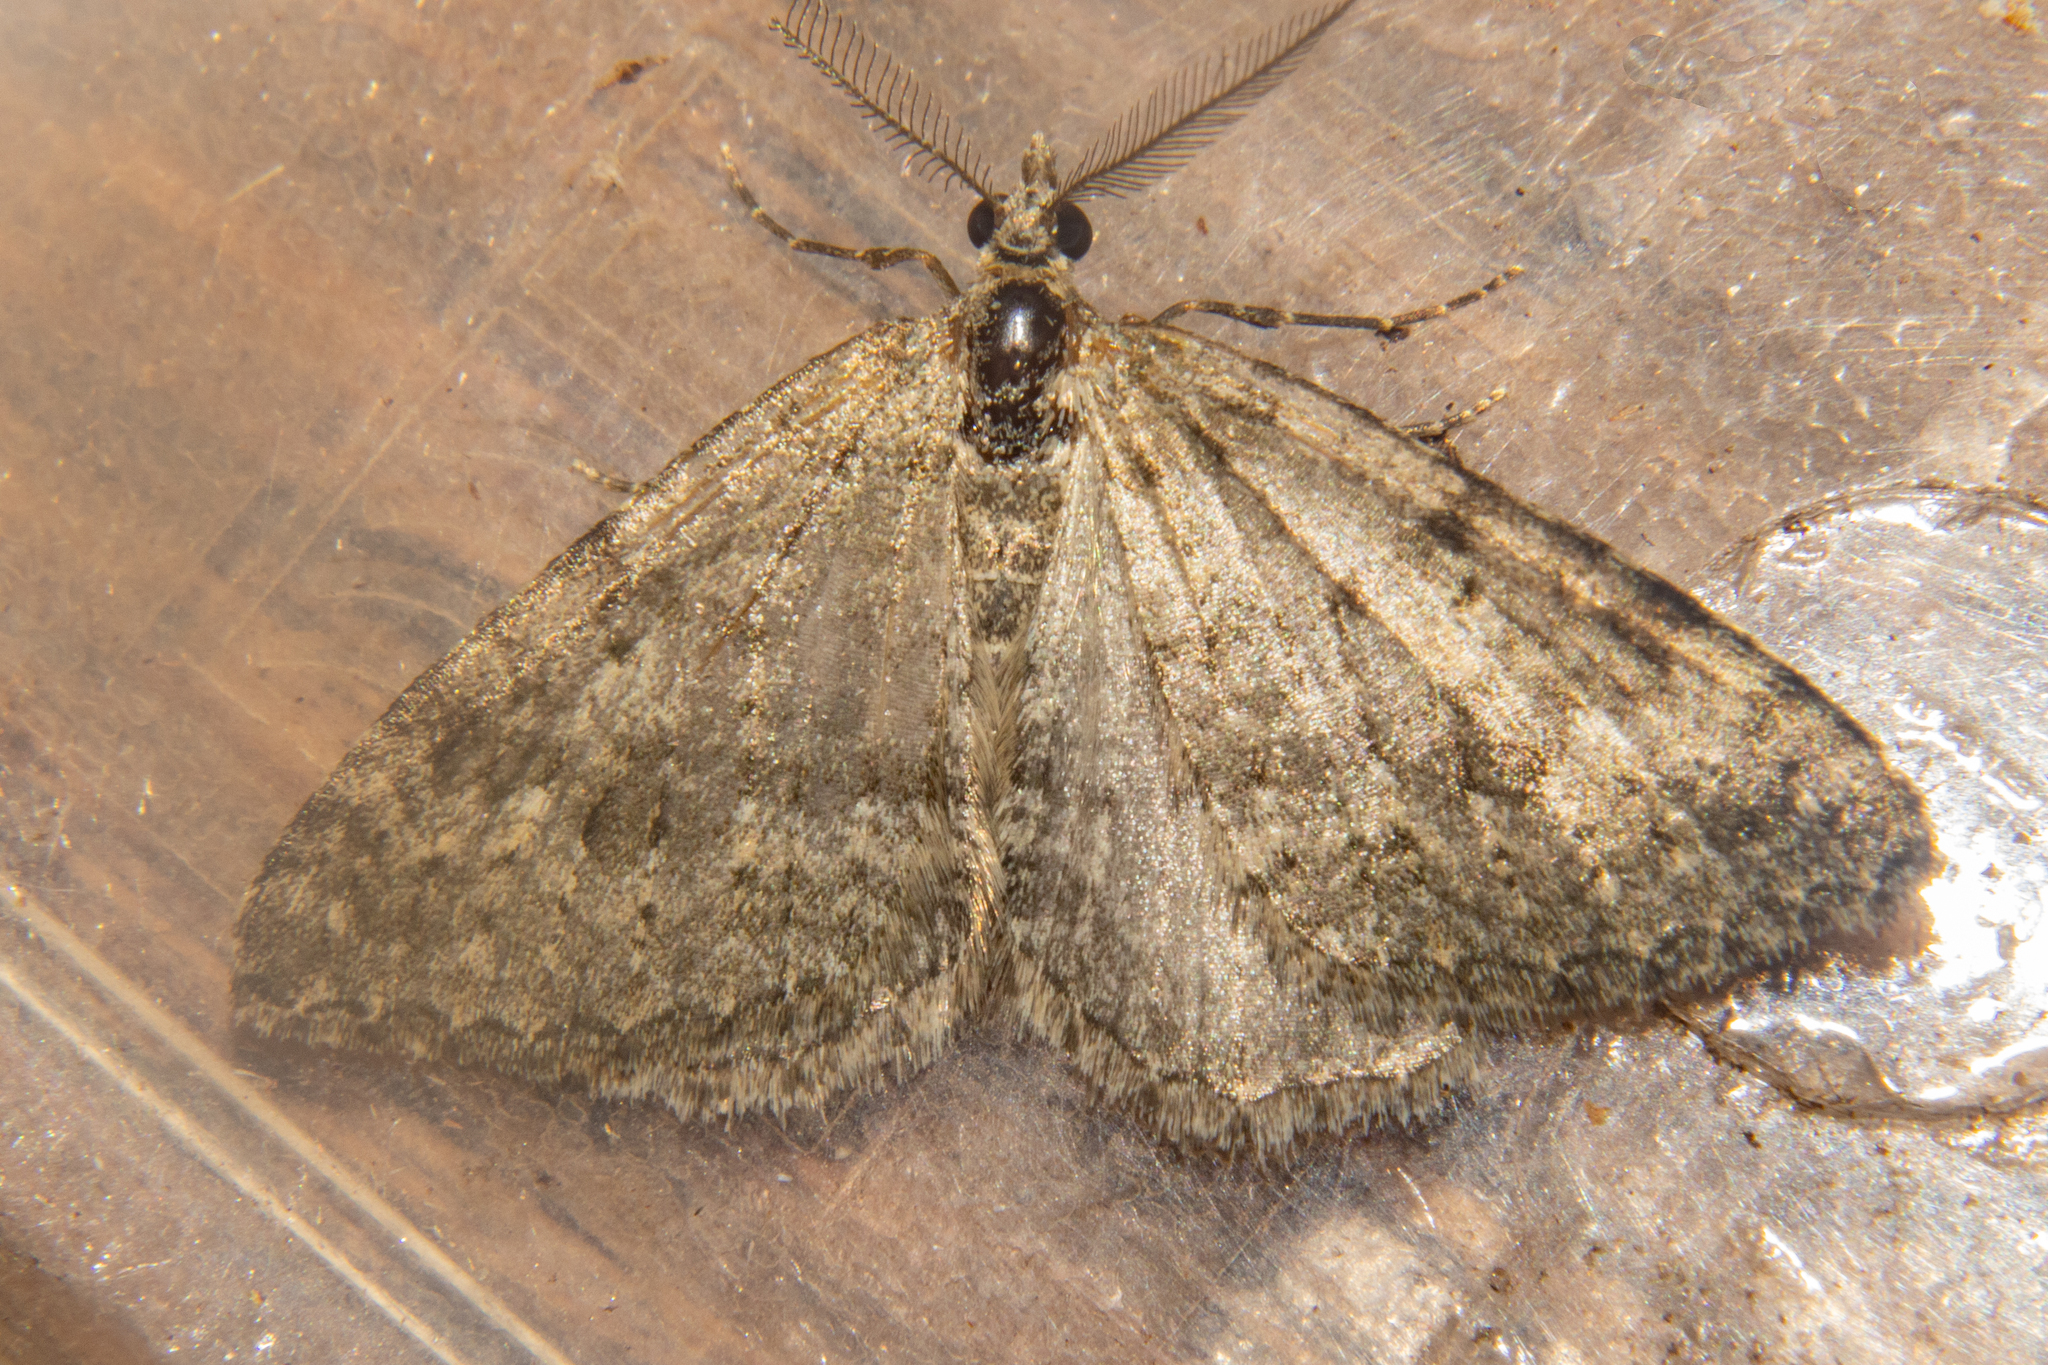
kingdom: Animalia
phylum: Arthropoda
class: Insecta
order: Lepidoptera
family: Geometridae
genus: Helastia
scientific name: Helastia corcularia
